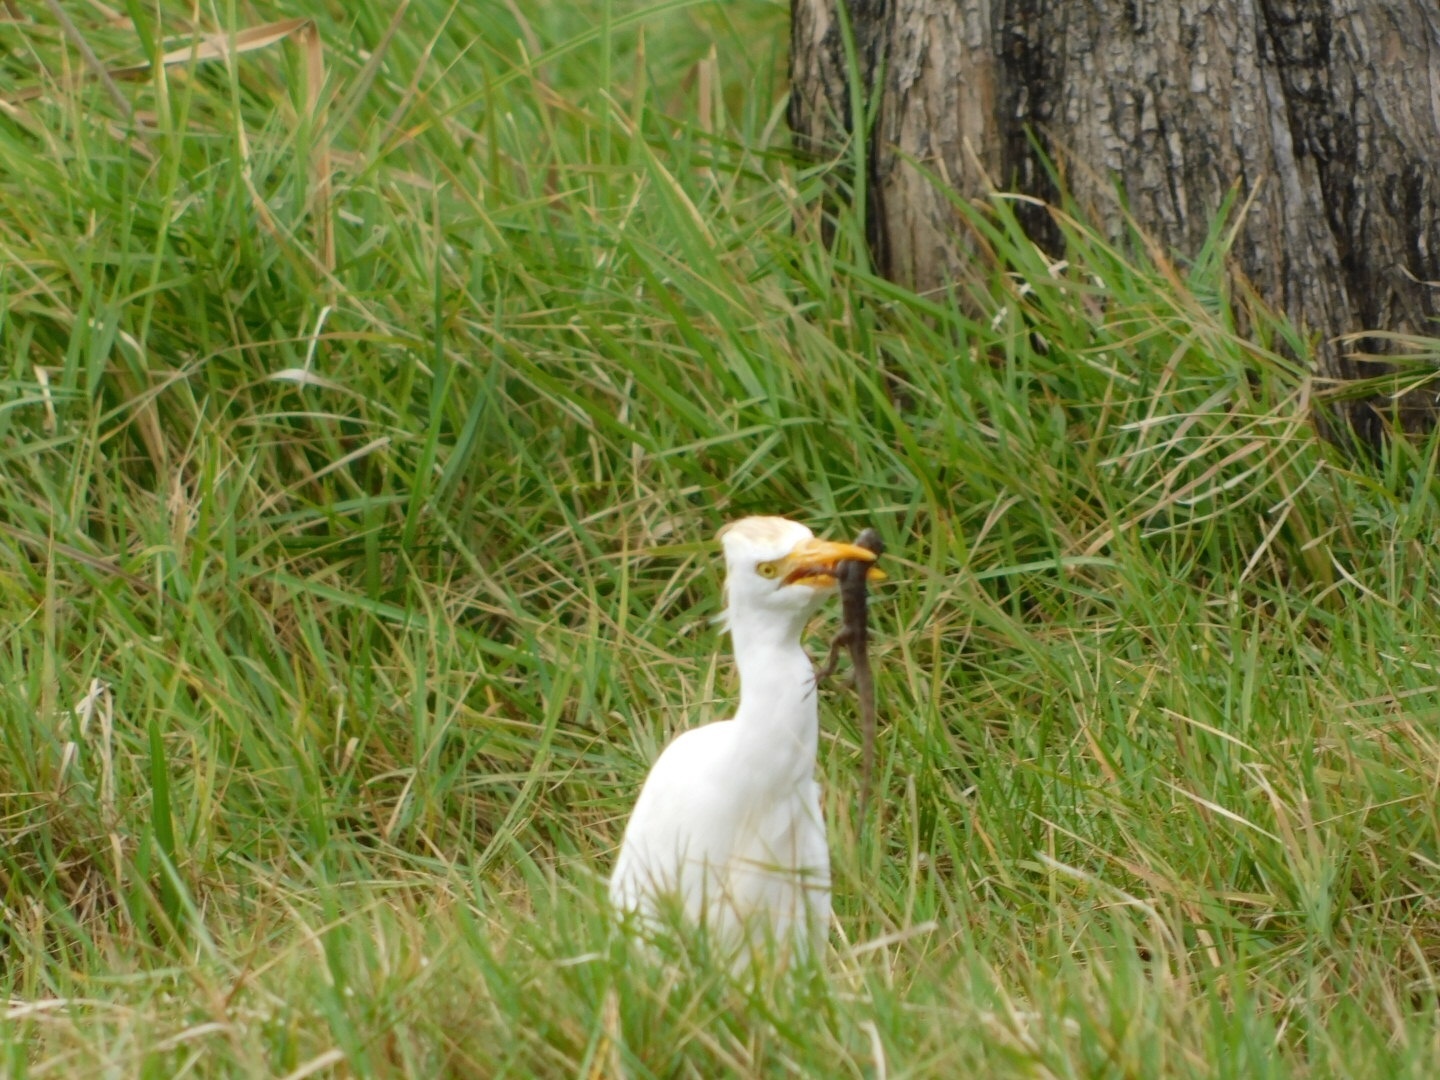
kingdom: Animalia
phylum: Chordata
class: Aves
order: Pelecaniformes
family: Ardeidae
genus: Bubulcus
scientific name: Bubulcus ibis
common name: Cattle egret
